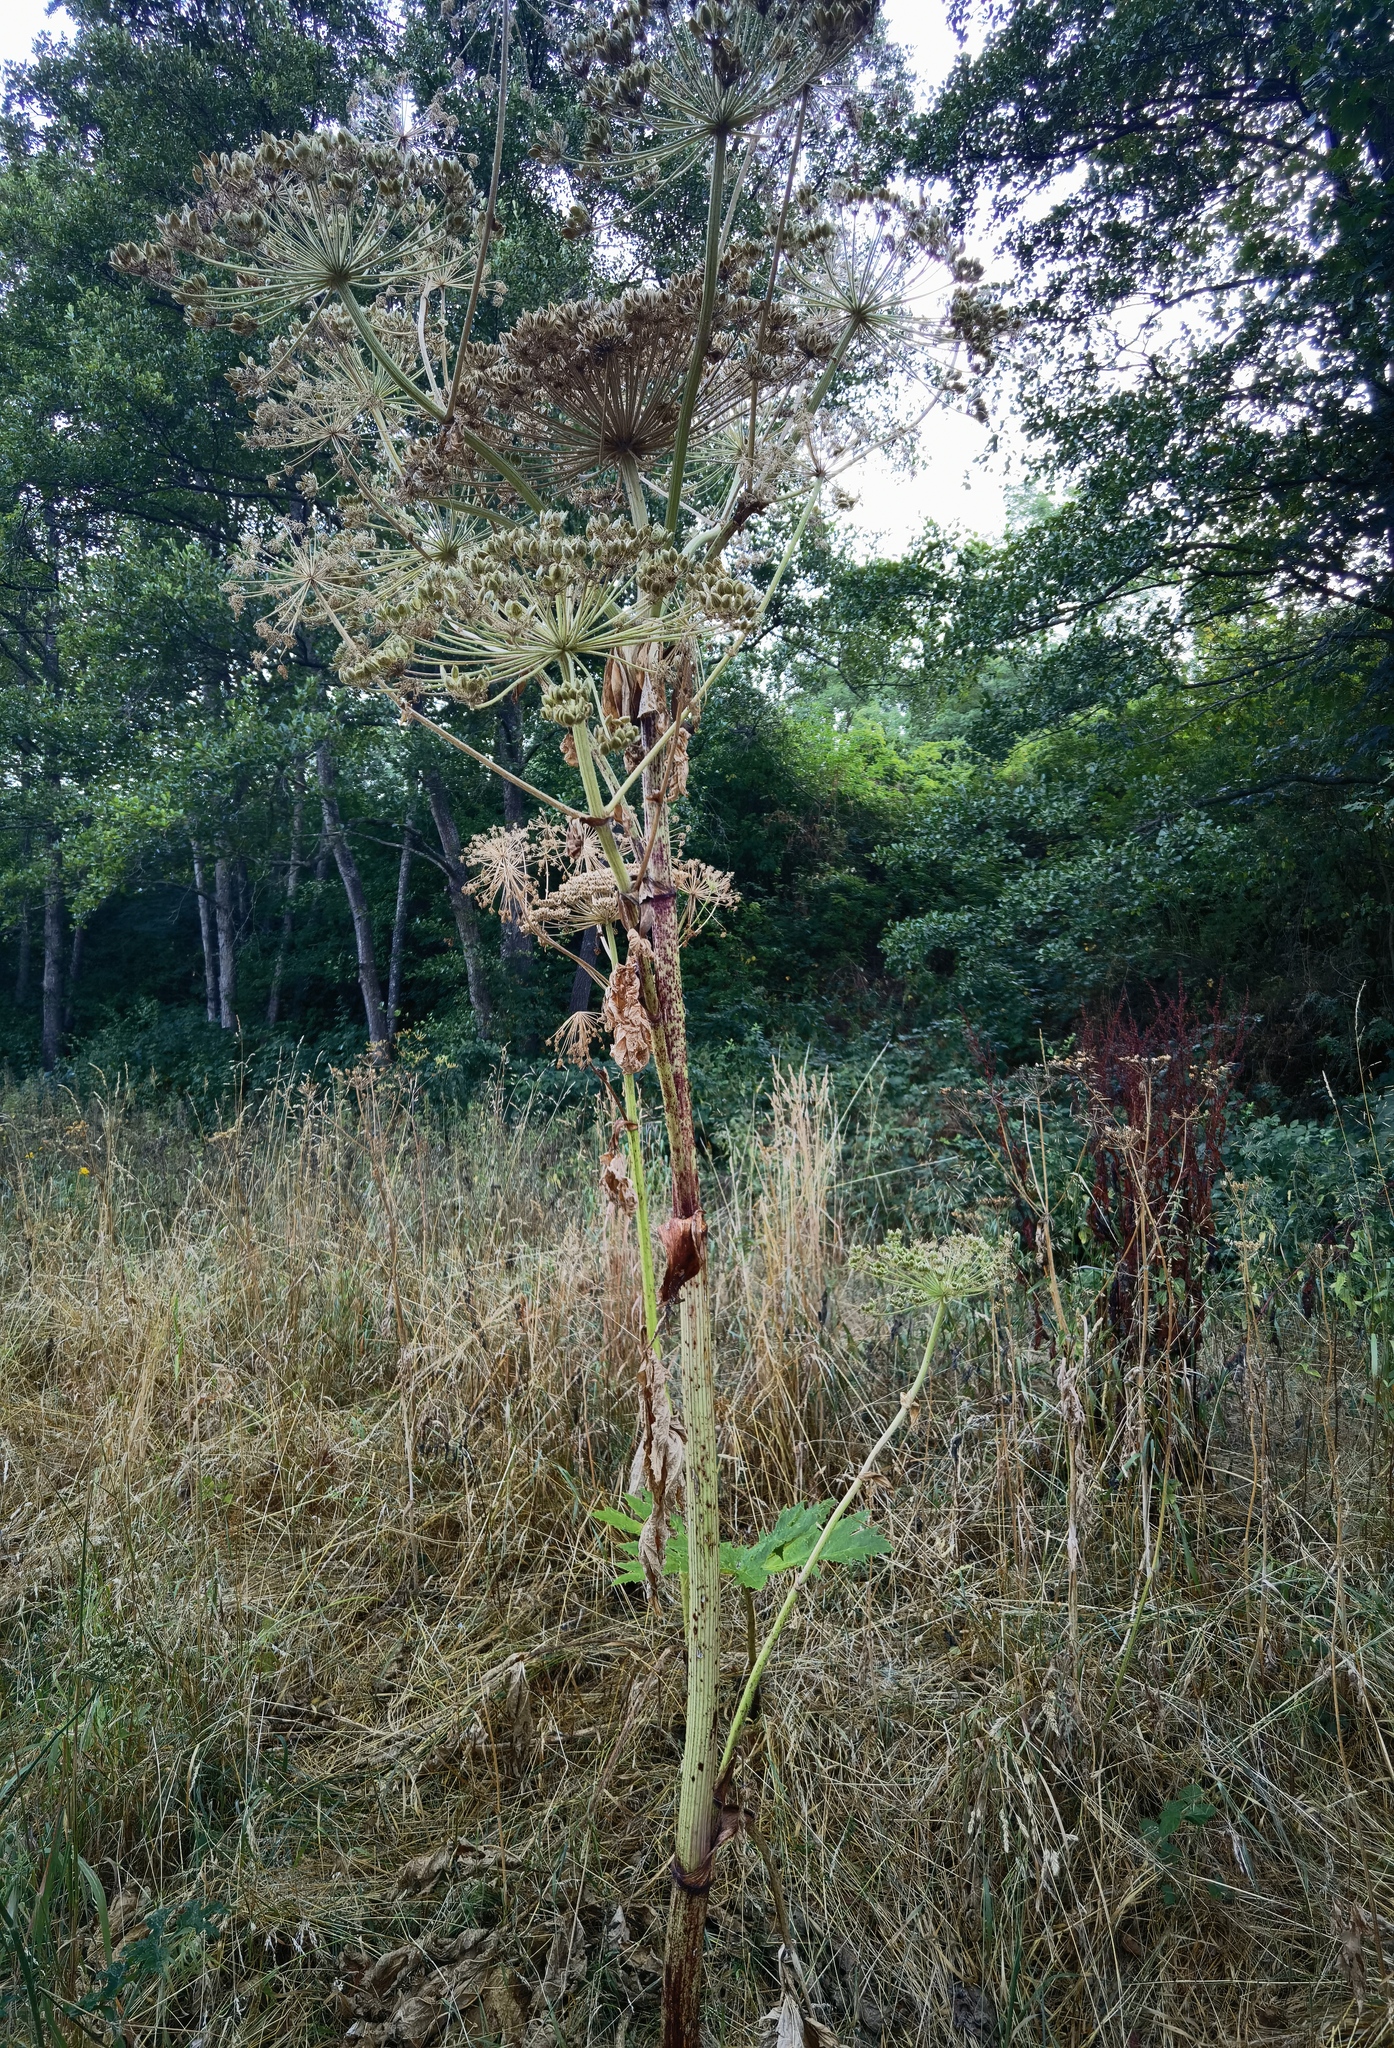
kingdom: Plantae
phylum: Tracheophyta
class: Magnoliopsida
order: Apiales
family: Apiaceae
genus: Heracleum
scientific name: Heracleum mantegazzianum
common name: Giant hogweed
